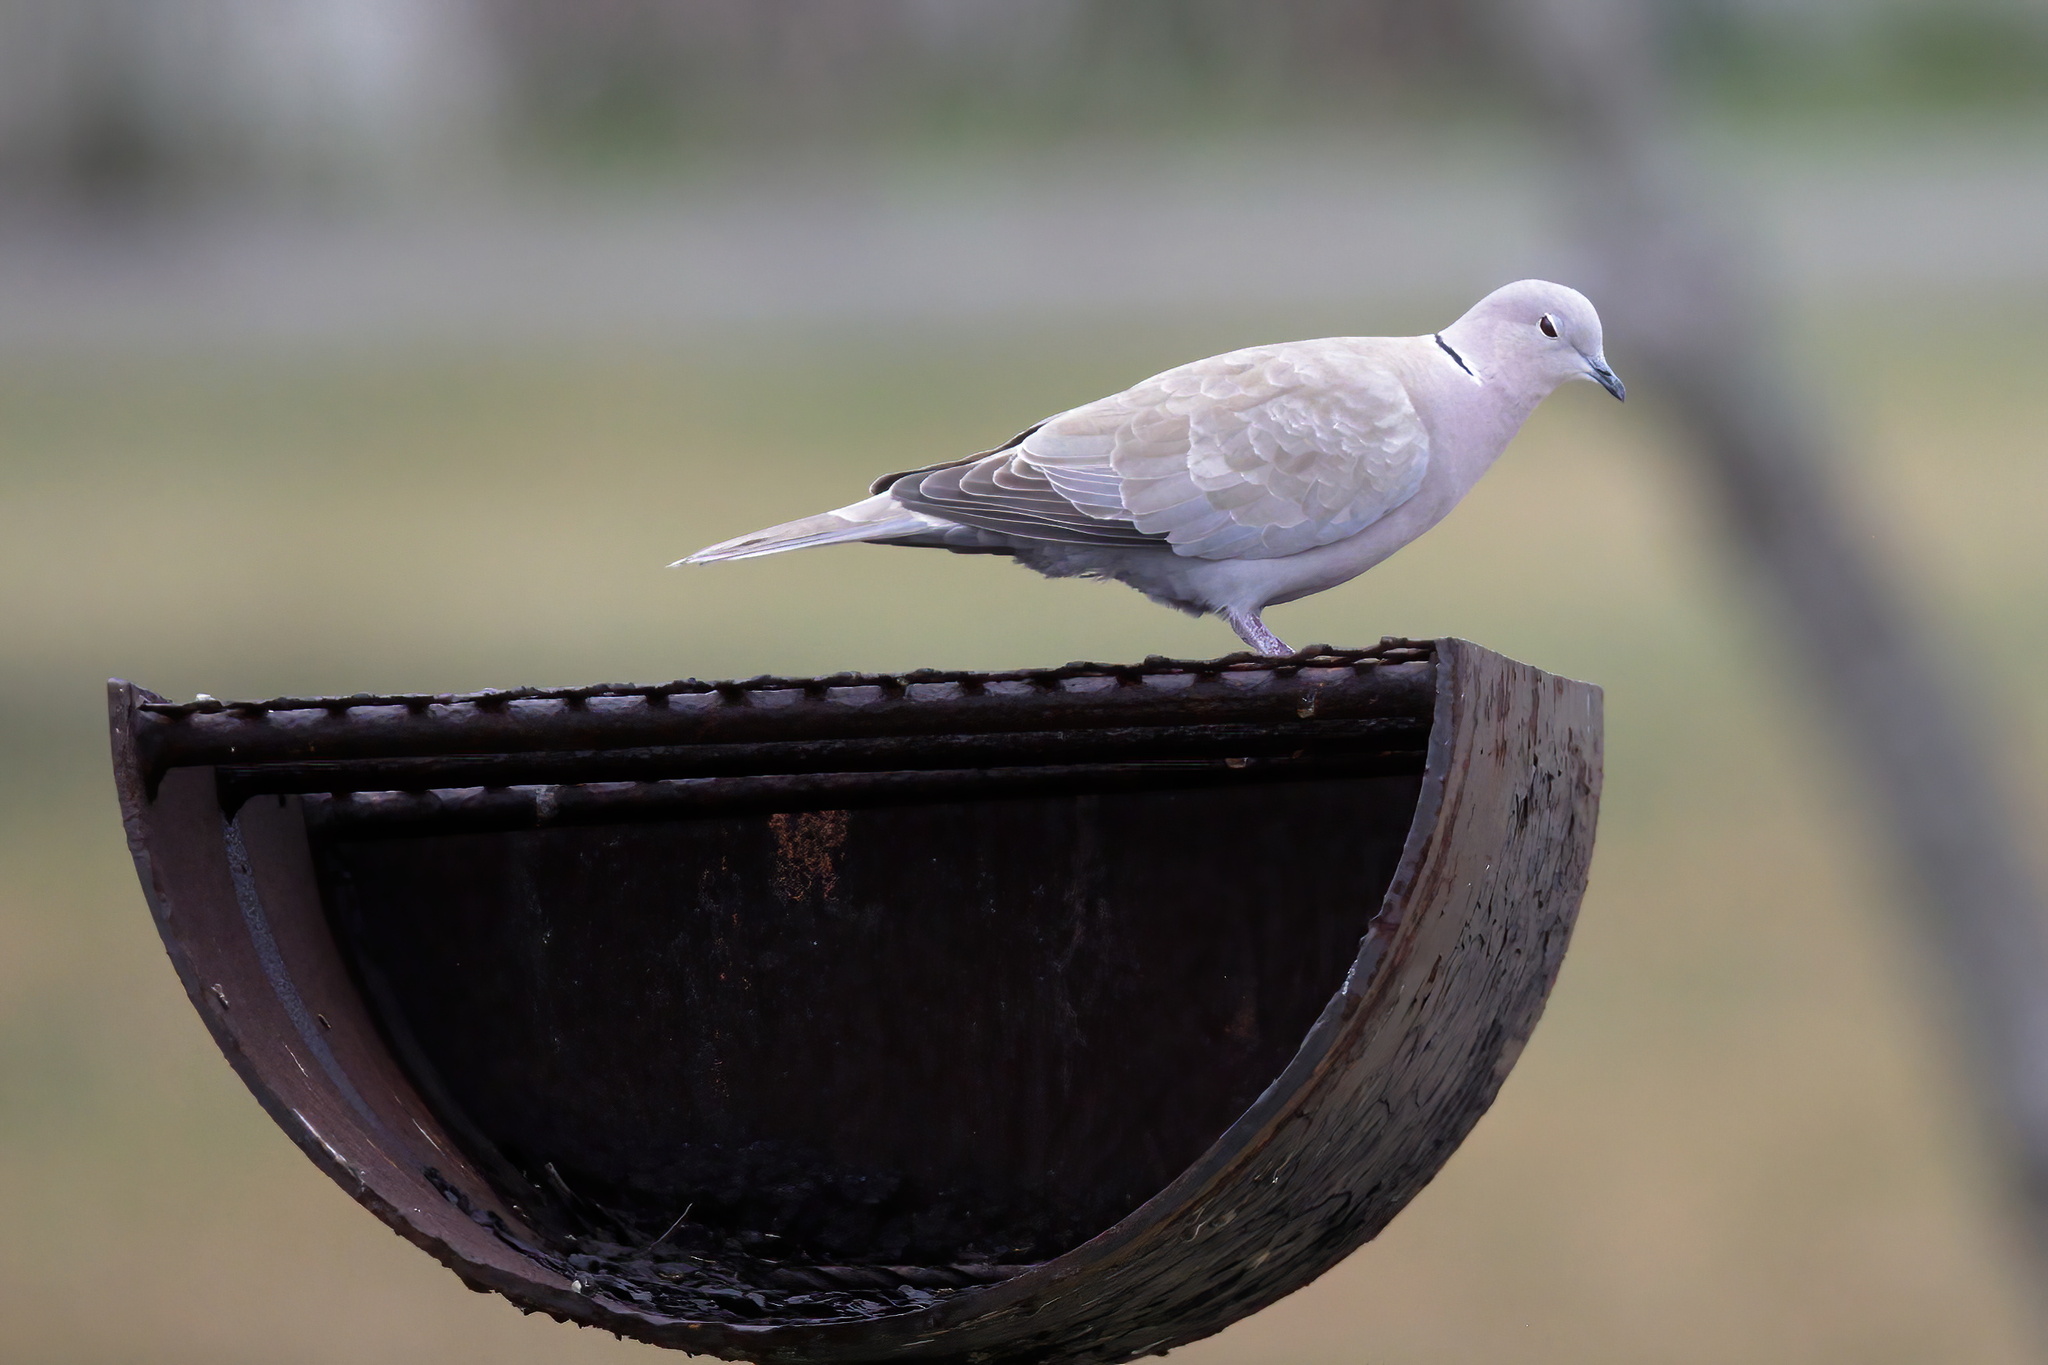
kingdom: Animalia
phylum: Chordata
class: Aves
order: Columbiformes
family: Columbidae
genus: Streptopelia
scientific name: Streptopelia decaocto
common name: Eurasian collared dove
